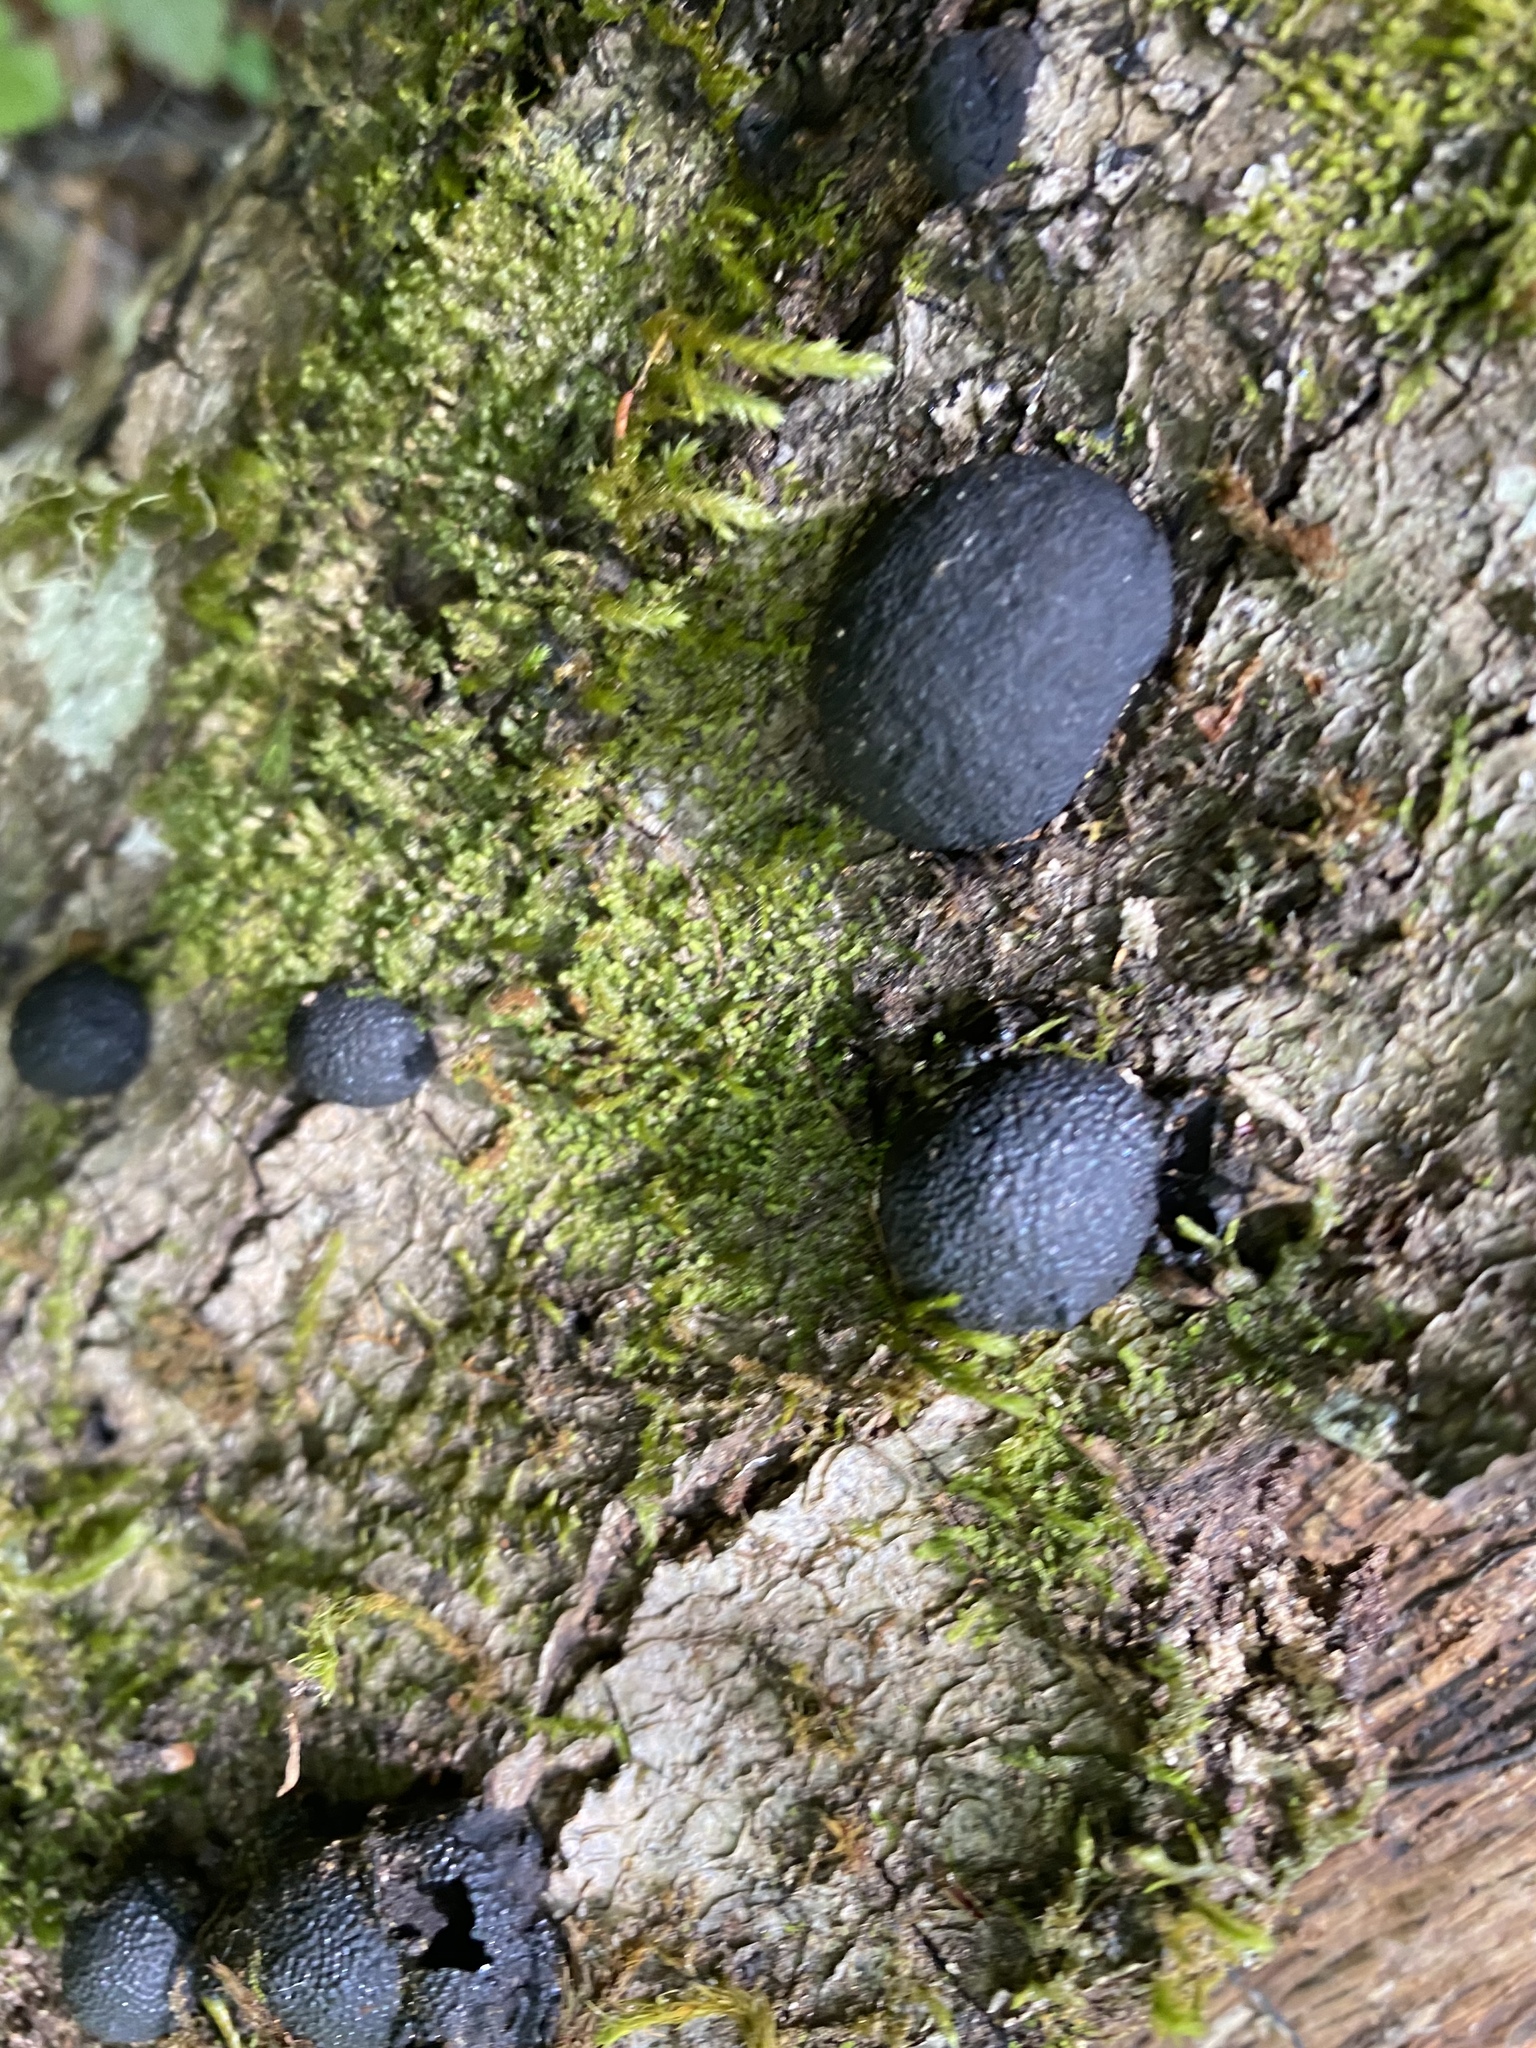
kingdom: Fungi
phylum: Ascomycota
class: Sordariomycetes
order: Xylariales
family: Hypoxylaceae
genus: Annulohypoxylon
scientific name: Annulohypoxylon thouarsianum
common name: Cramp balls
